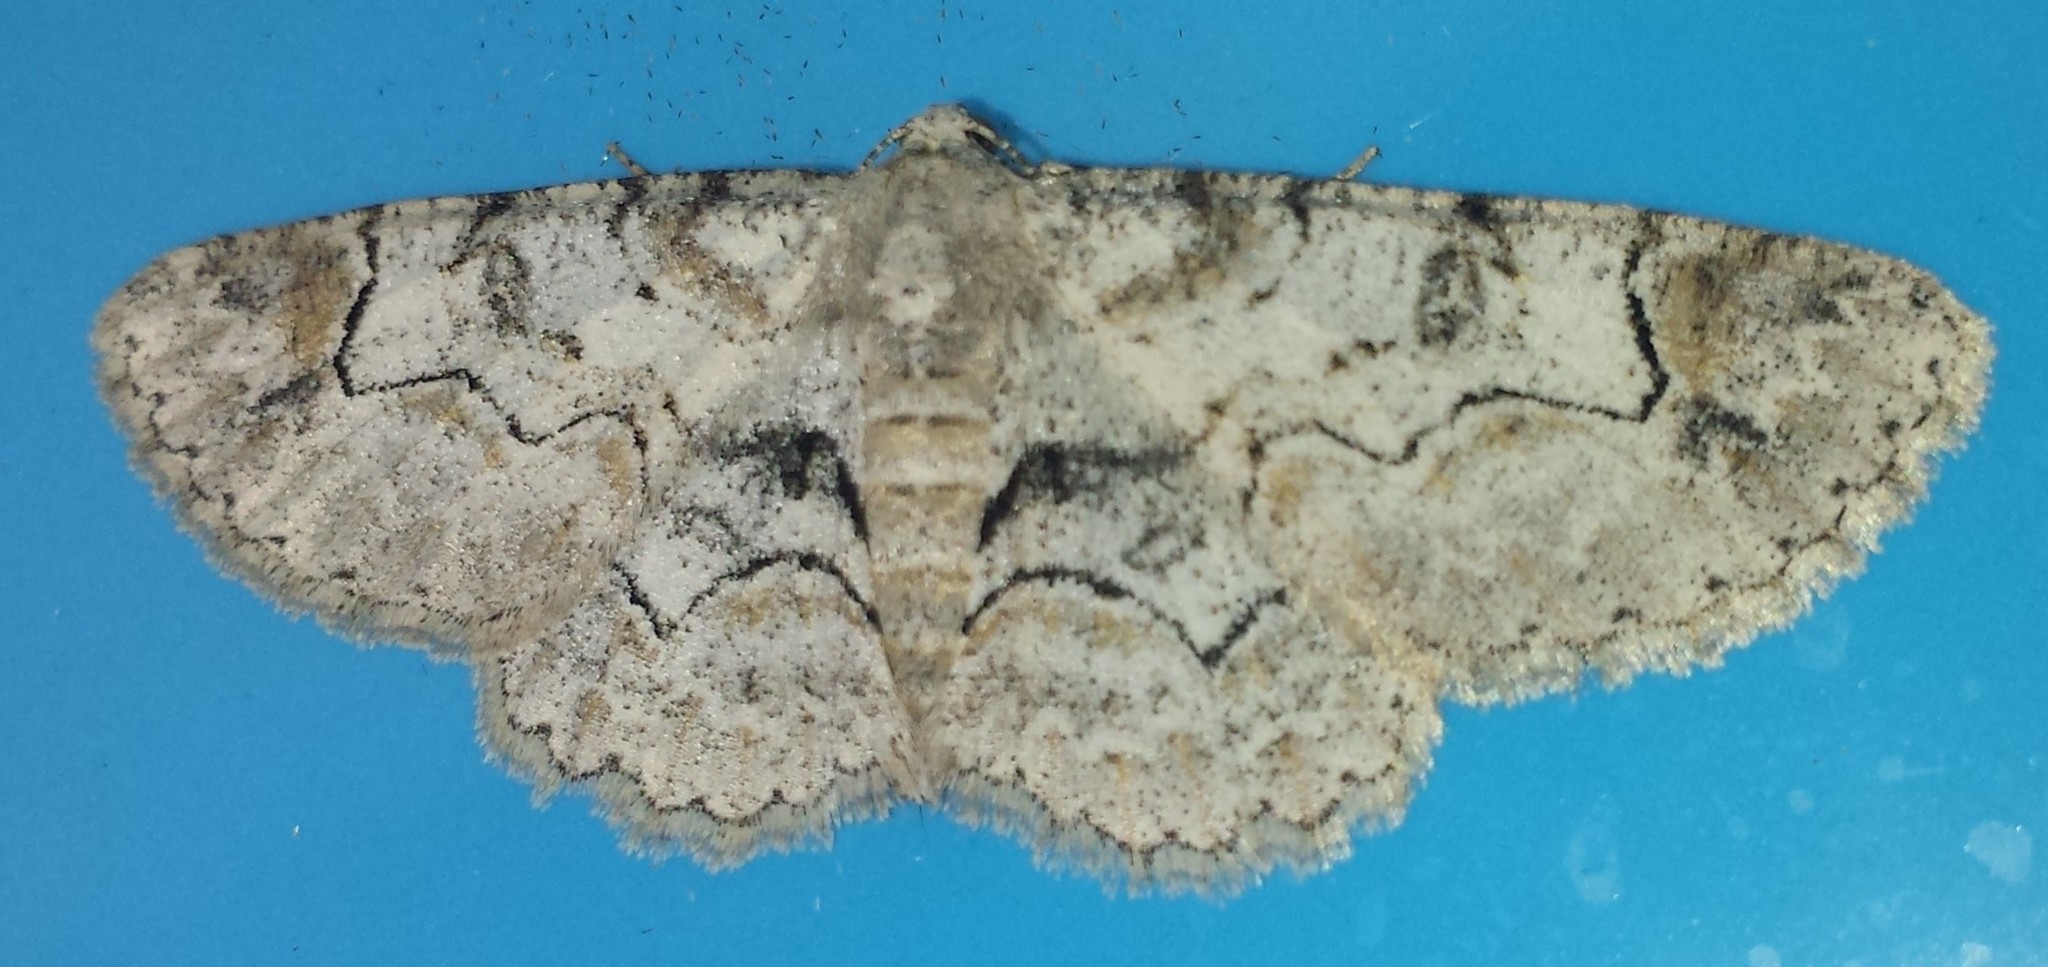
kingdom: Animalia
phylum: Arthropoda
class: Insecta
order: Lepidoptera
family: Geometridae
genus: Iridopsis
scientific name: Iridopsis larvaria
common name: Bent-line gray
